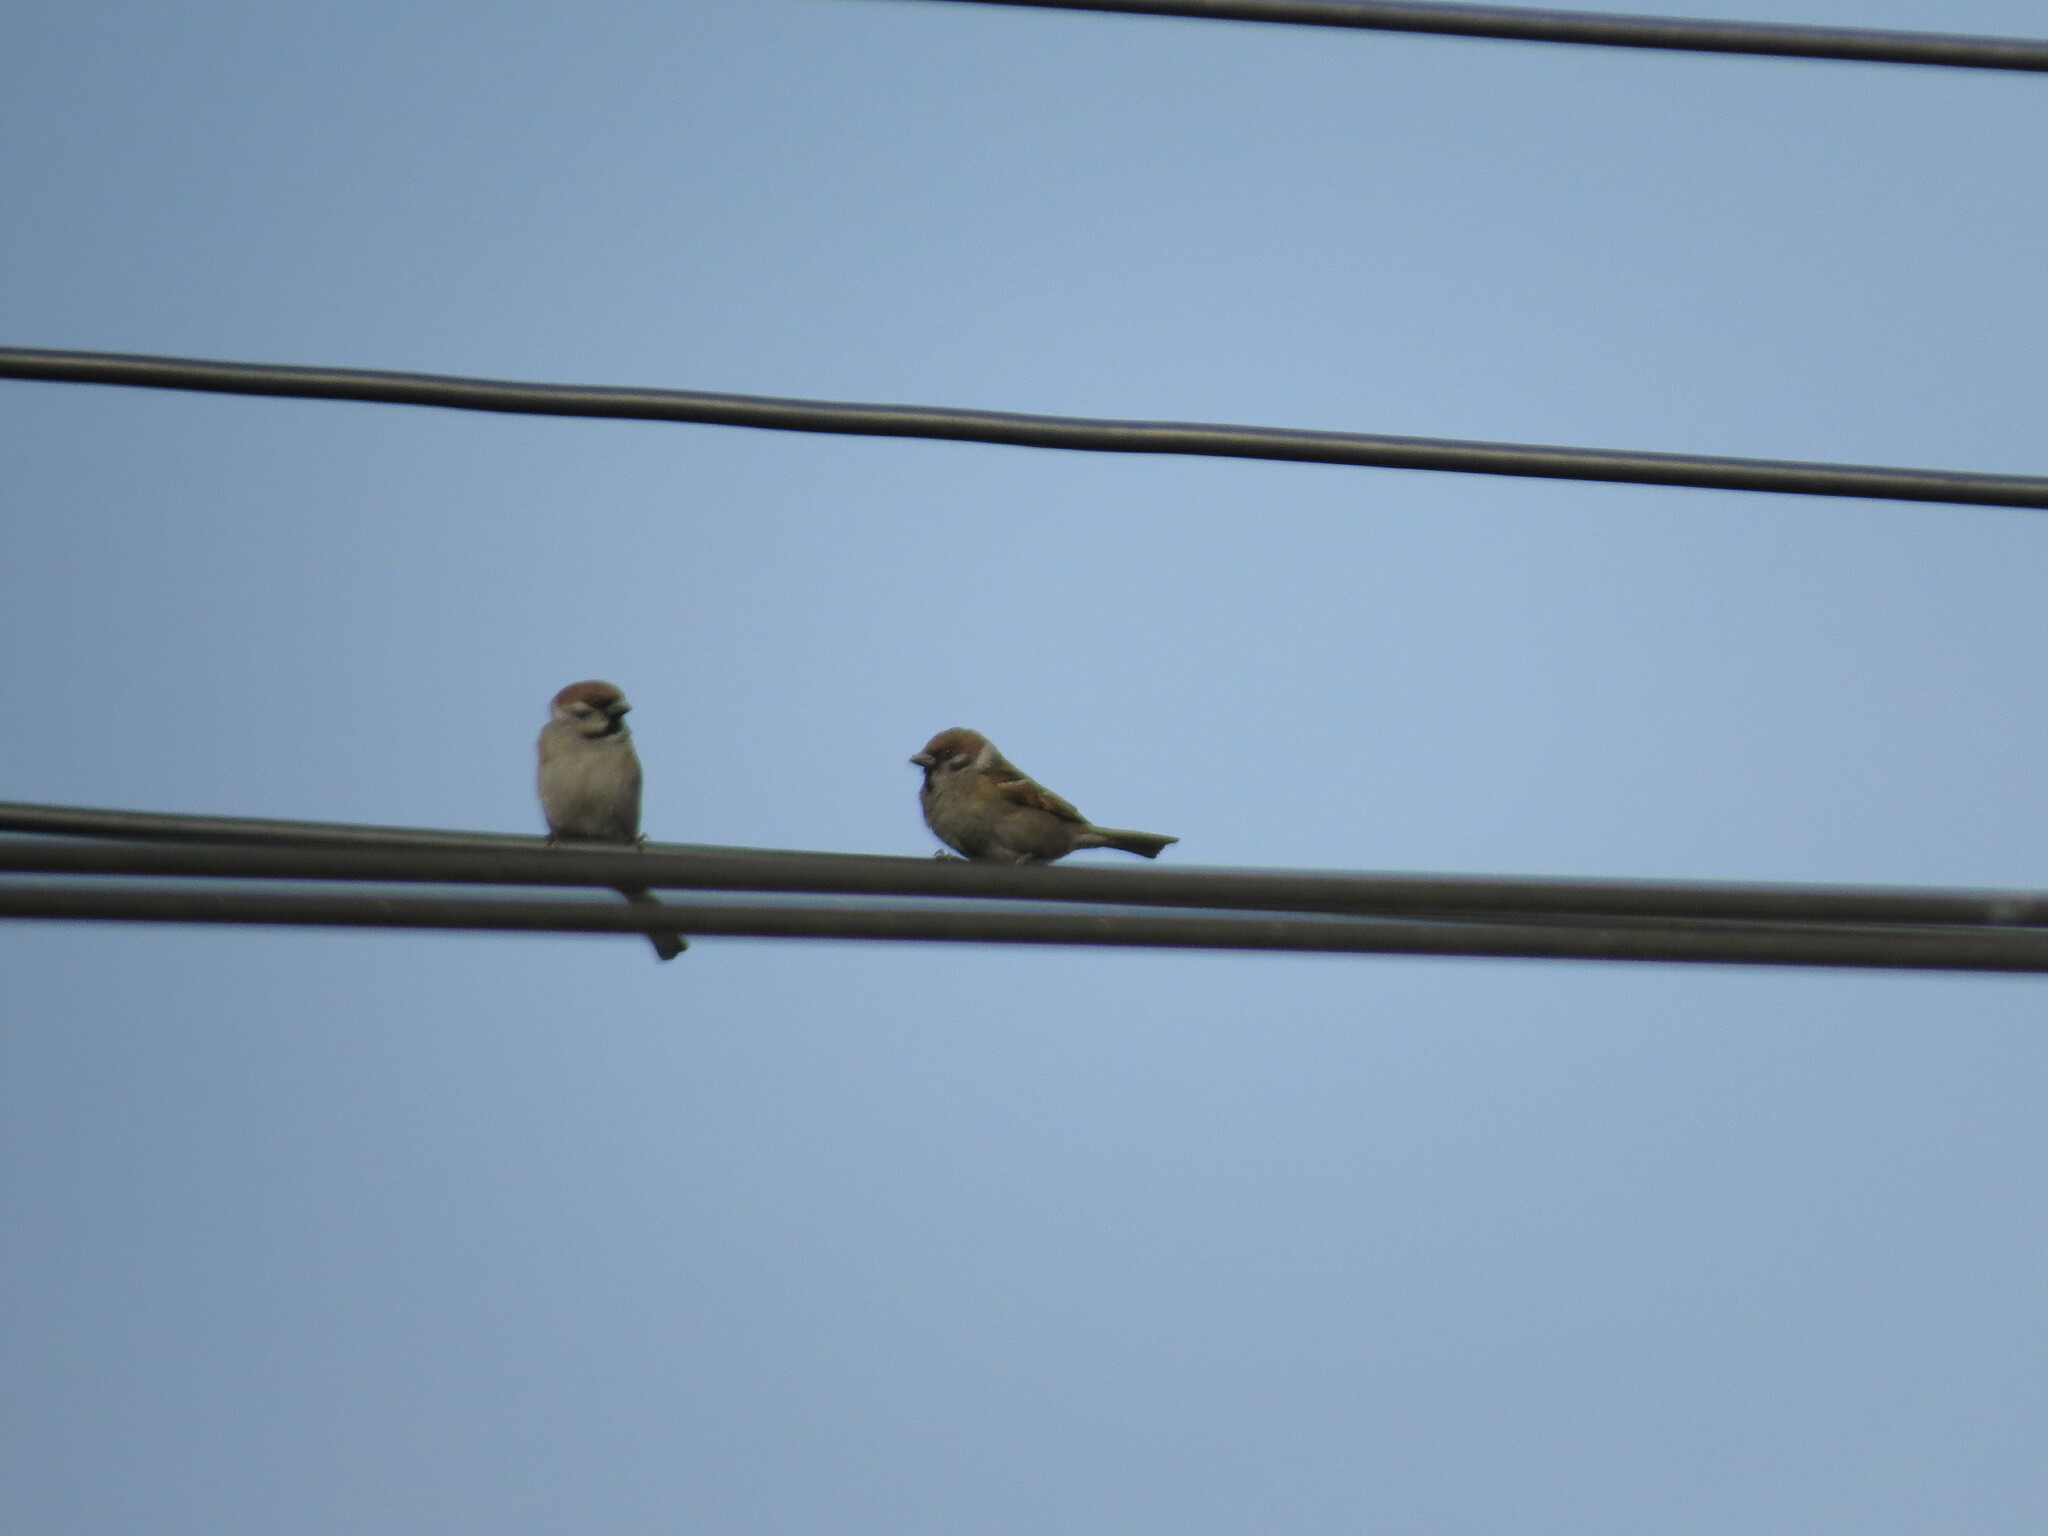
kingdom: Animalia
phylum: Chordata
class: Aves
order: Passeriformes
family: Passeridae
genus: Passer
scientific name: Passer montanus
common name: Eurasian tree sparrow
